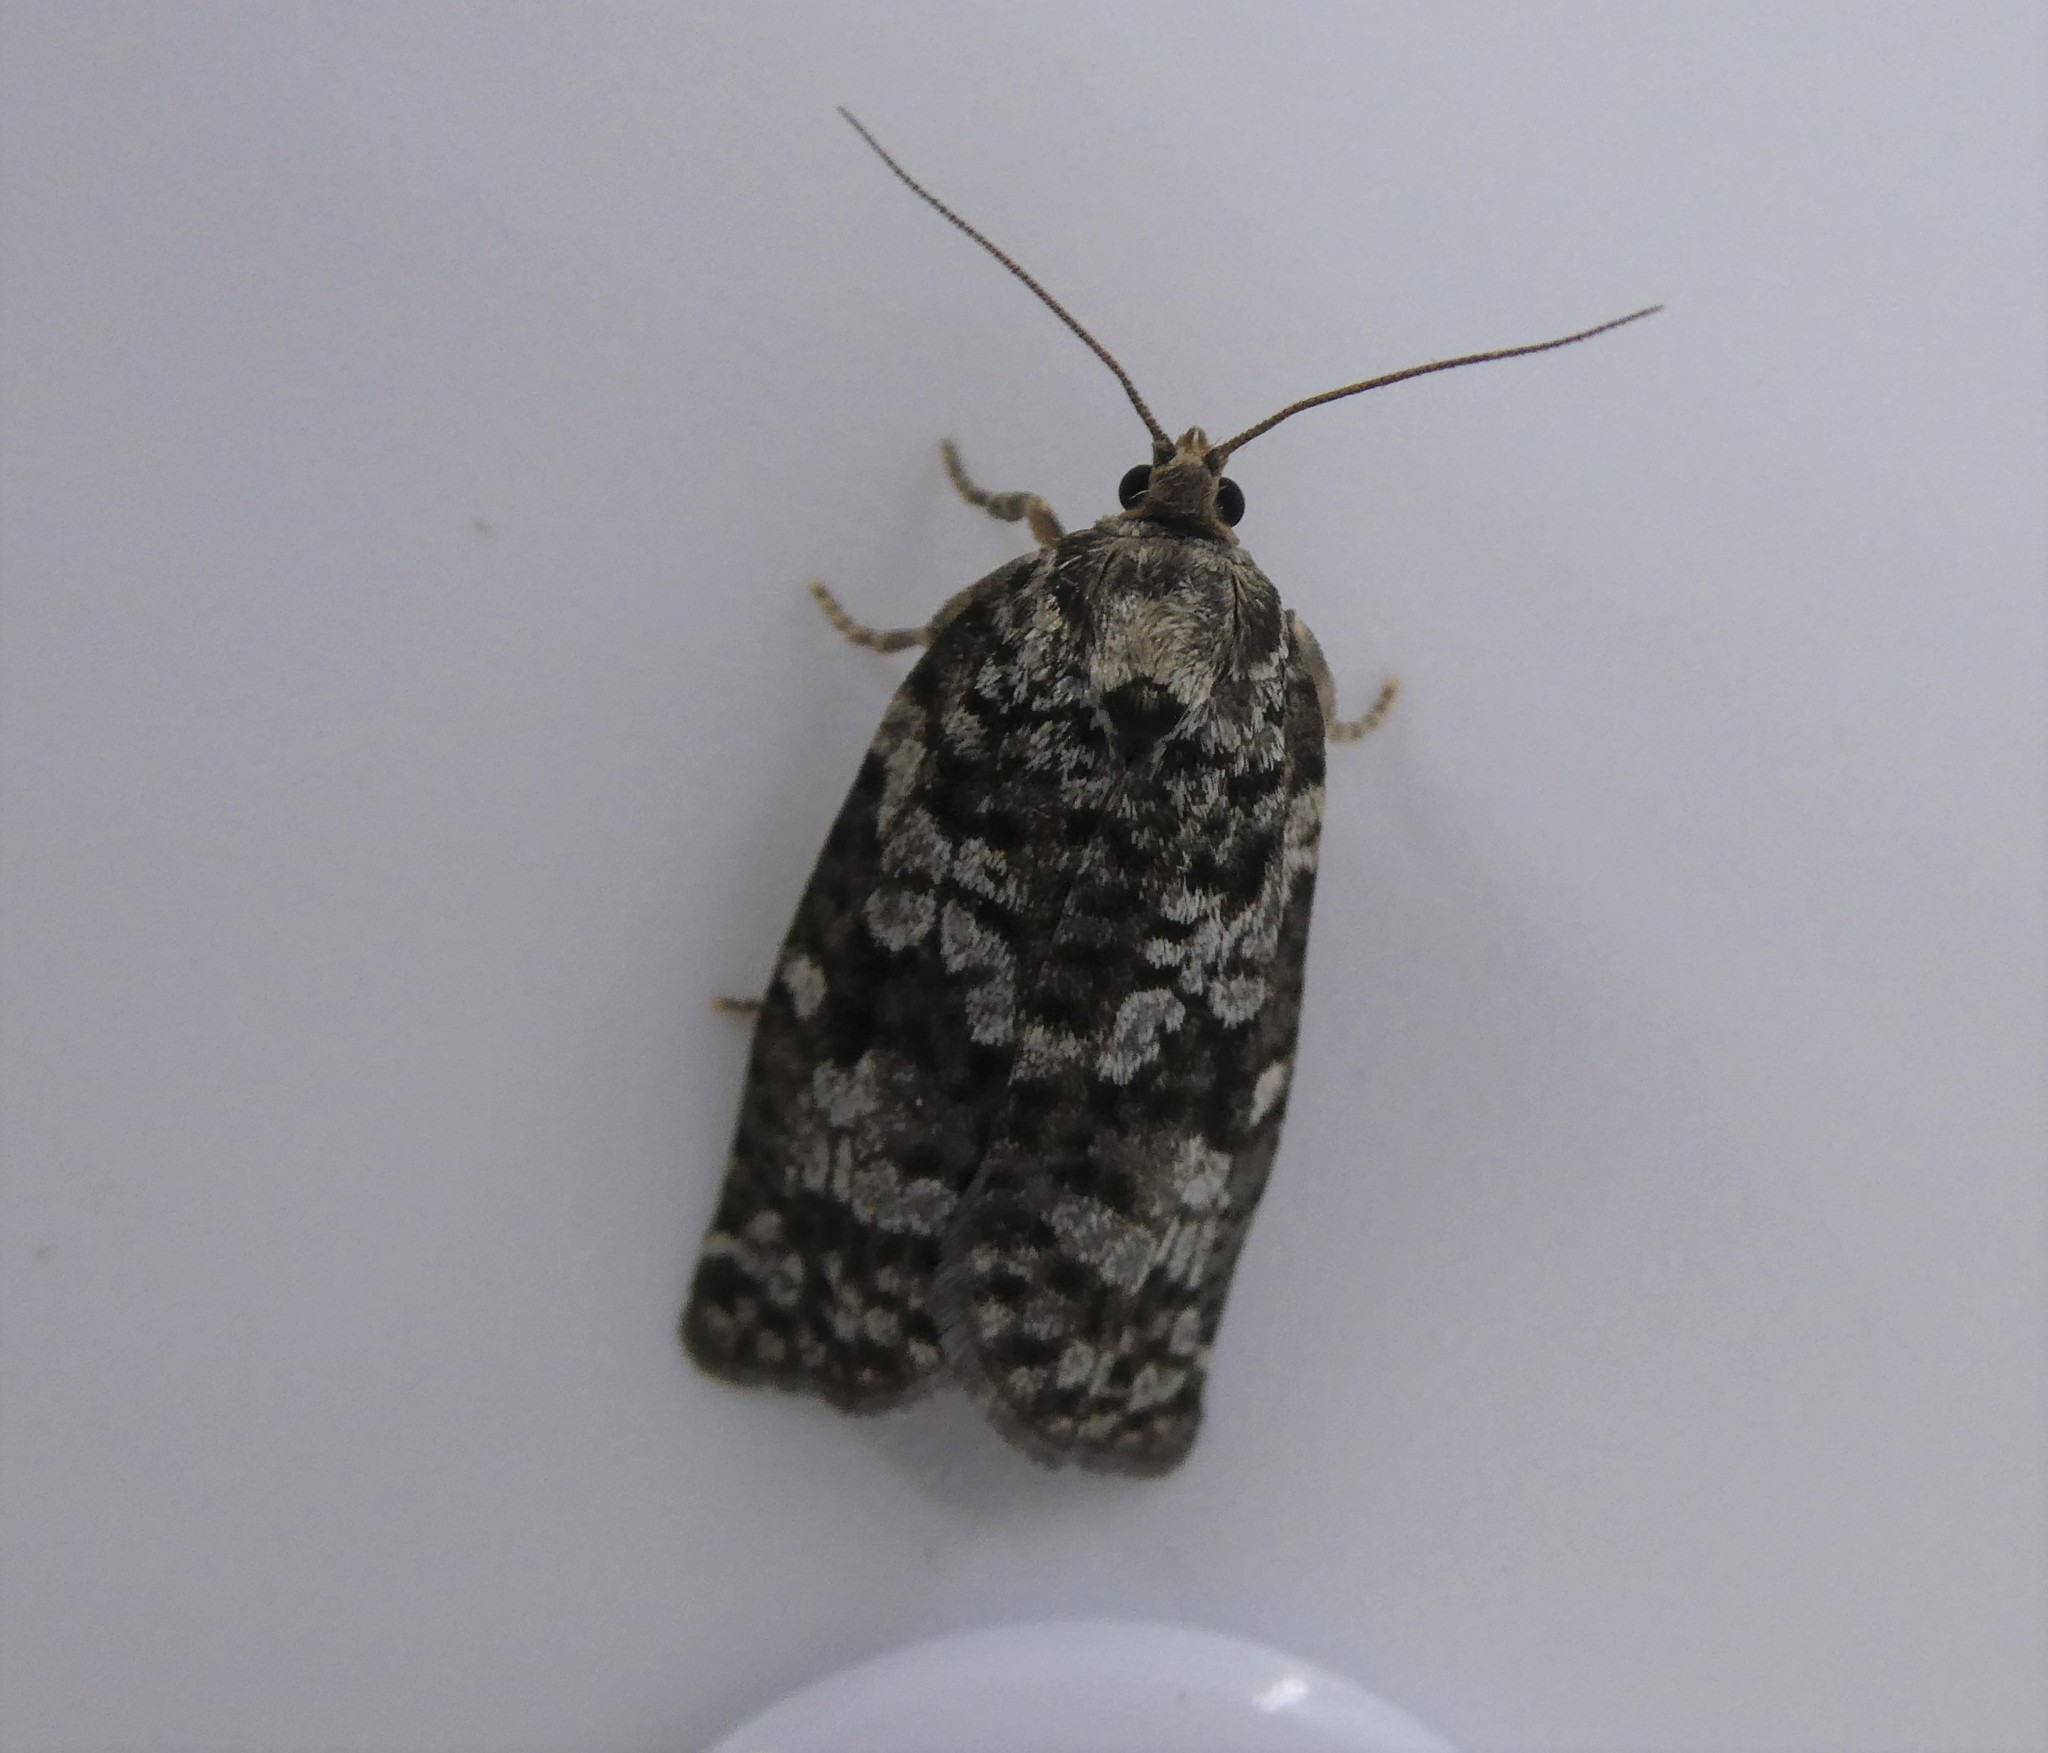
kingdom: Animalia
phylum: Arthropoda
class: Insecta
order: Lepidoptera
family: Tortricidae
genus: Archips
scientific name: Archips packardiana
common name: Spring spruce needle moth
